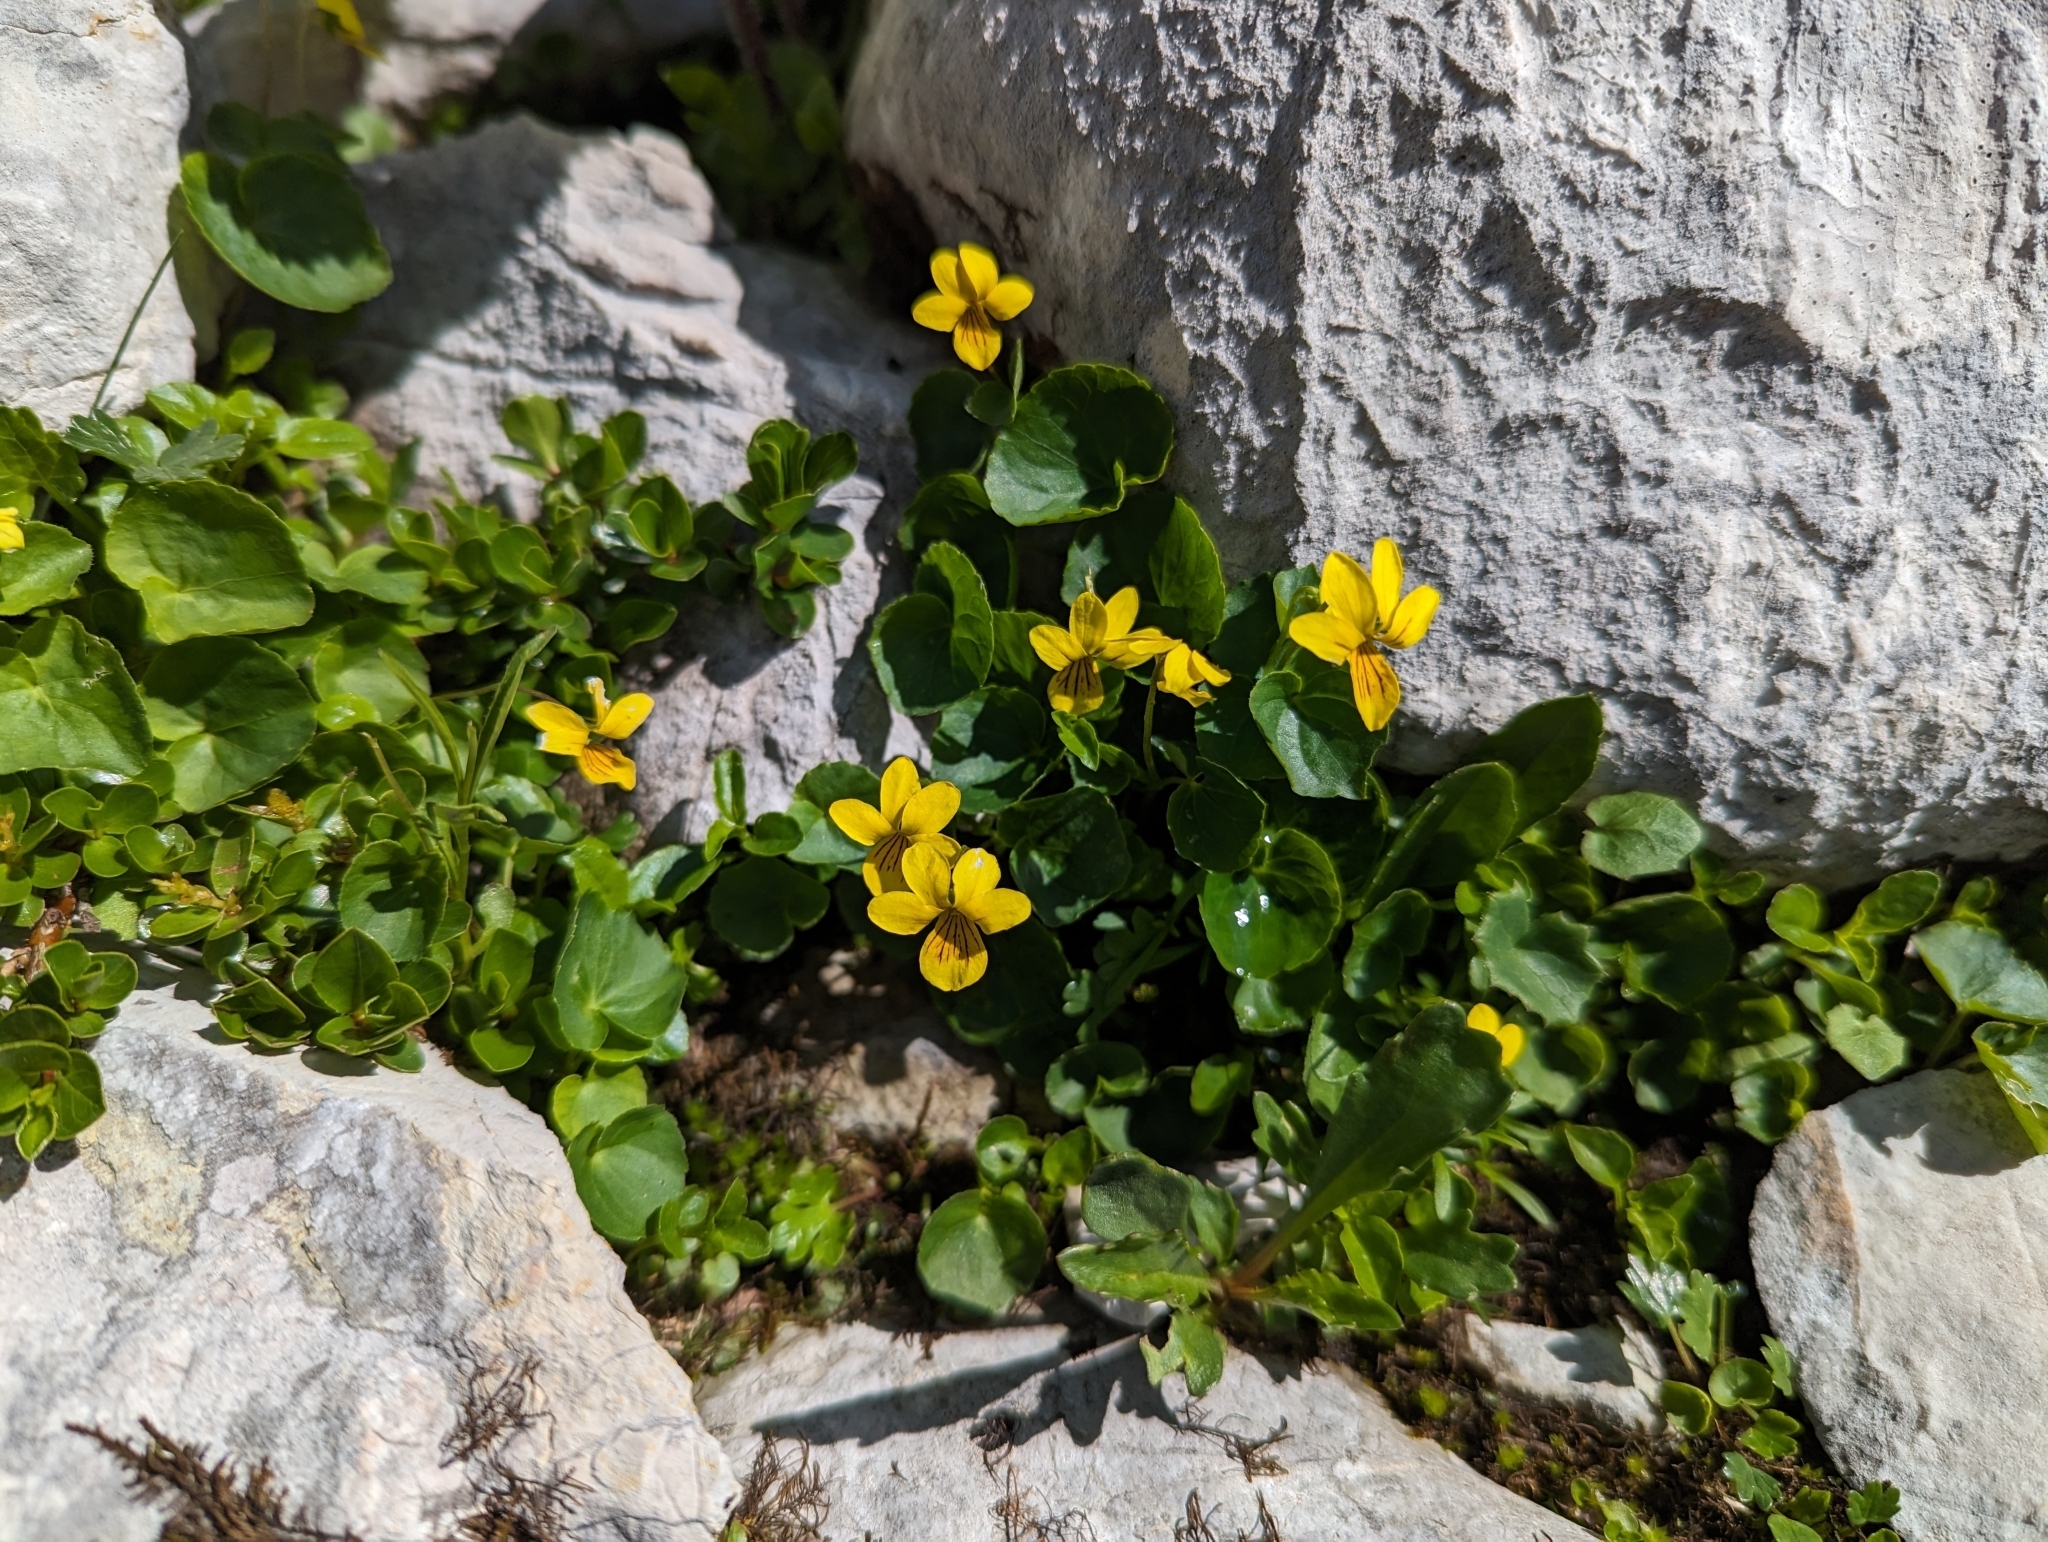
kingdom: Plantae
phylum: Tracheophyta
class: Magnoliopsida
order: Malpighiales
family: Violaceae
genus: Viola
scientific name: Viola biflora
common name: Alpine yellow violet
